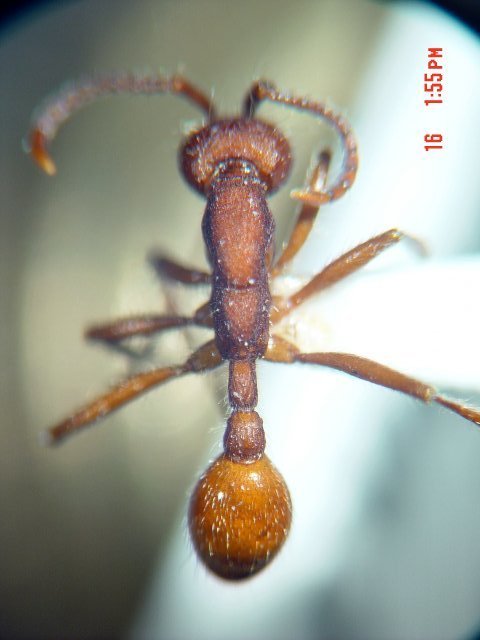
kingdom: Animalia
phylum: Arthropoda
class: Insecta
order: Hymenoptera
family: Formicidae
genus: Neivamyrmex
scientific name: Neivamyrmex nigrescens
